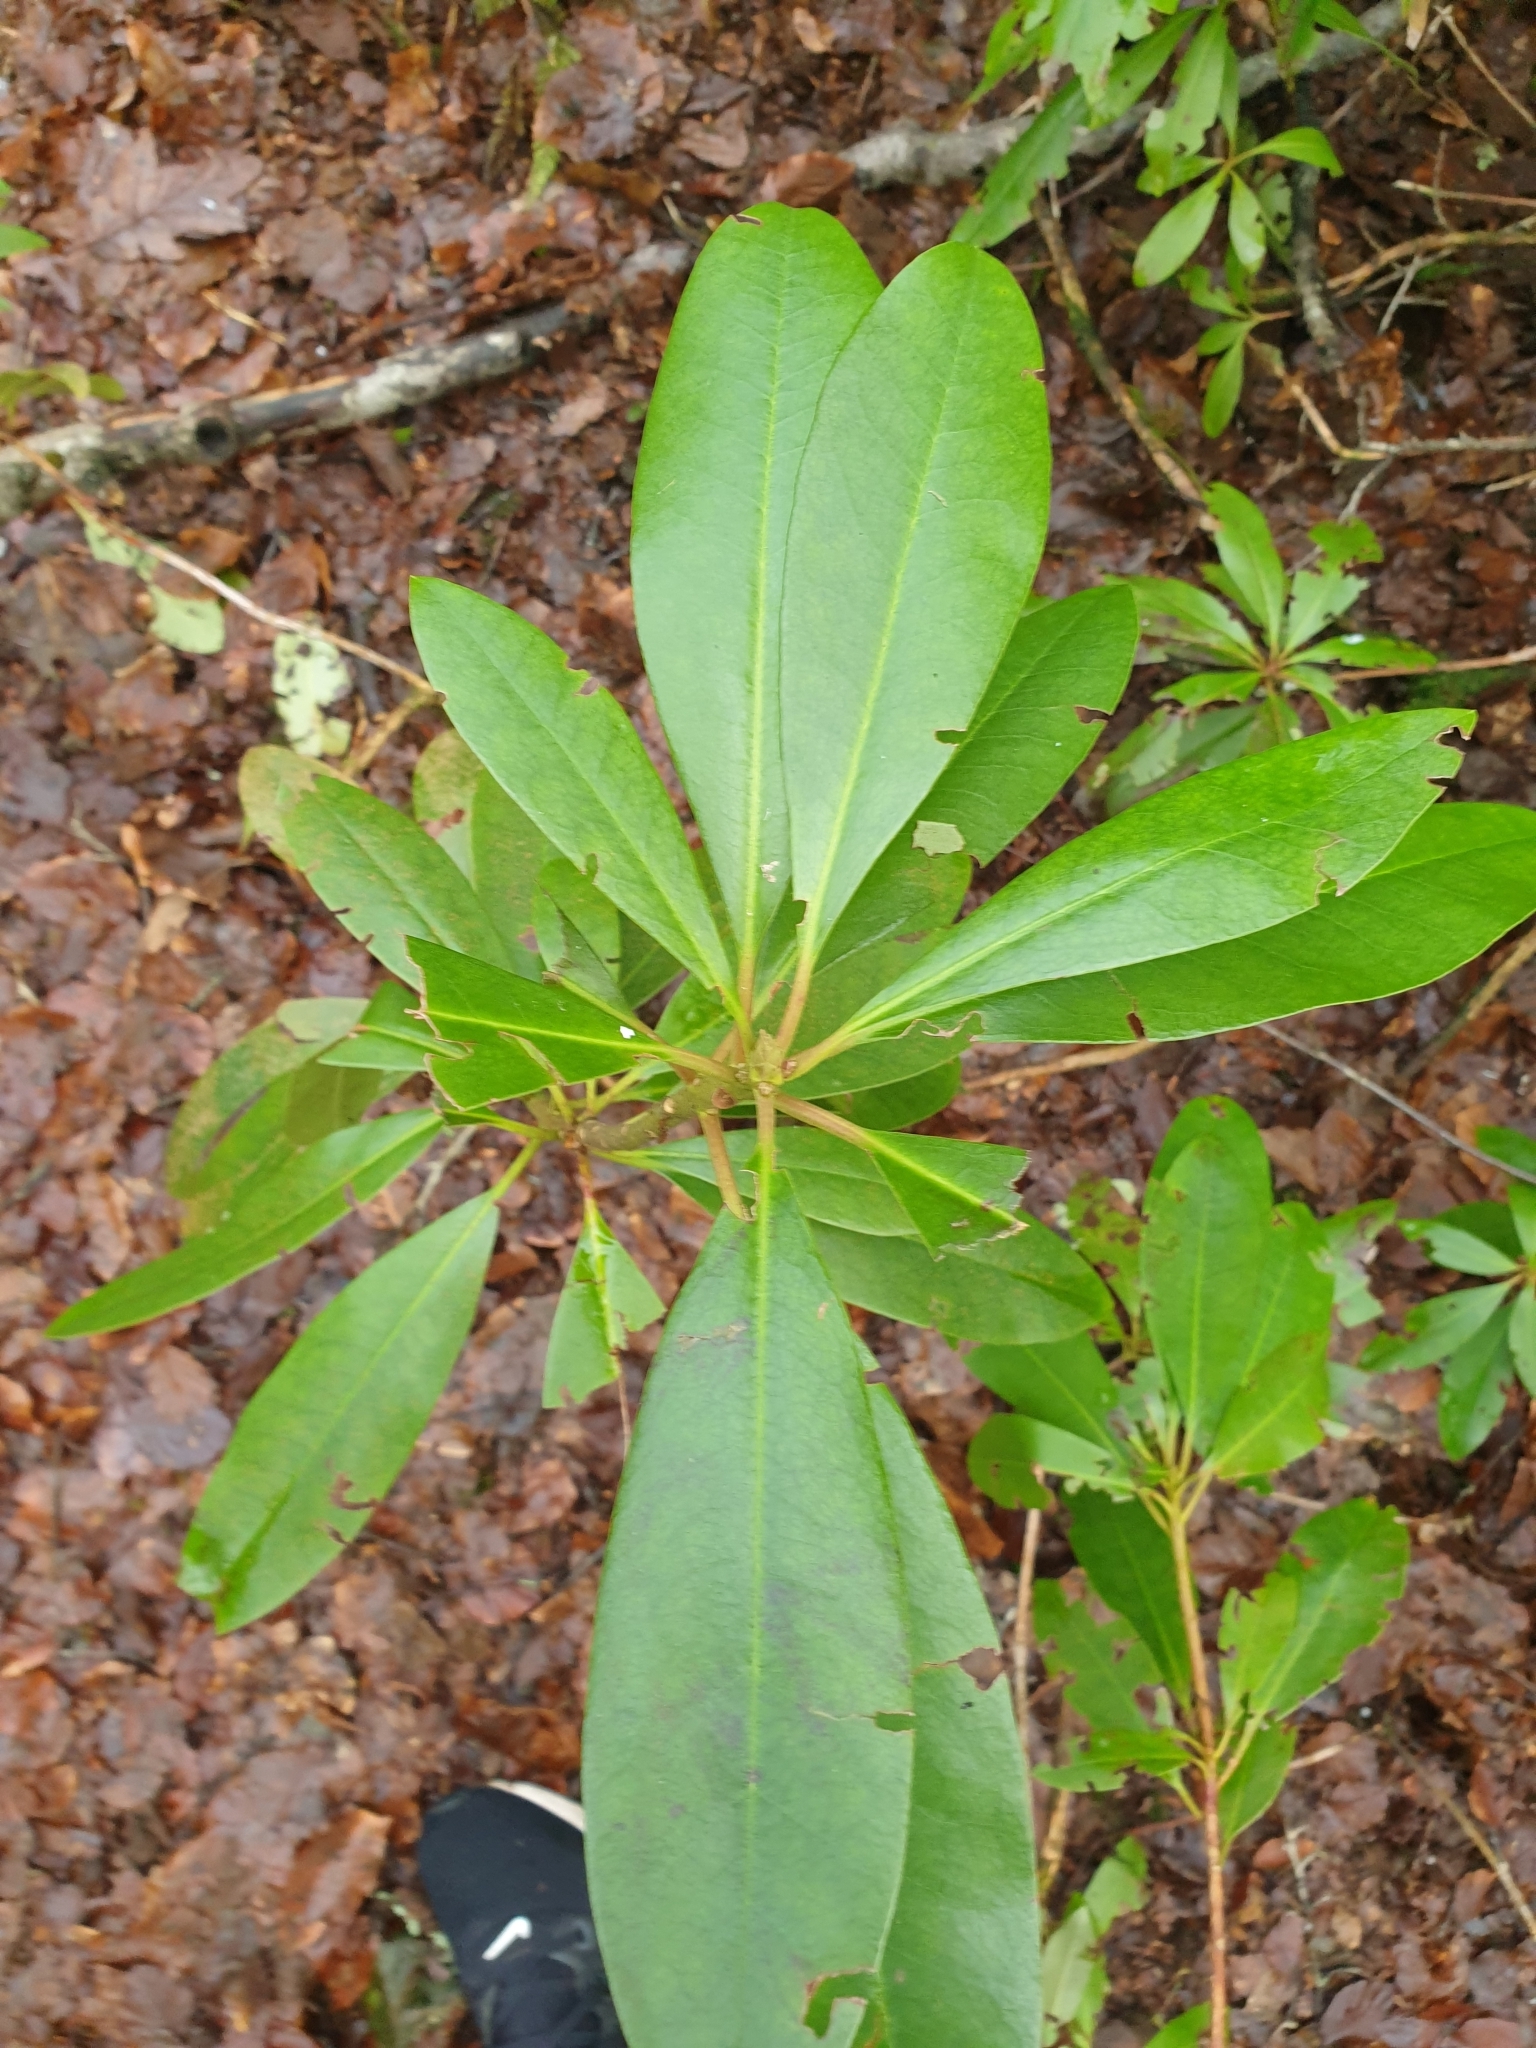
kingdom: Plantae
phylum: Tracheophyta
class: Magnoliopsida
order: Ericales
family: Ericaceae
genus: Rhododendron
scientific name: Rhododendron ponticum
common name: Rhododendron
